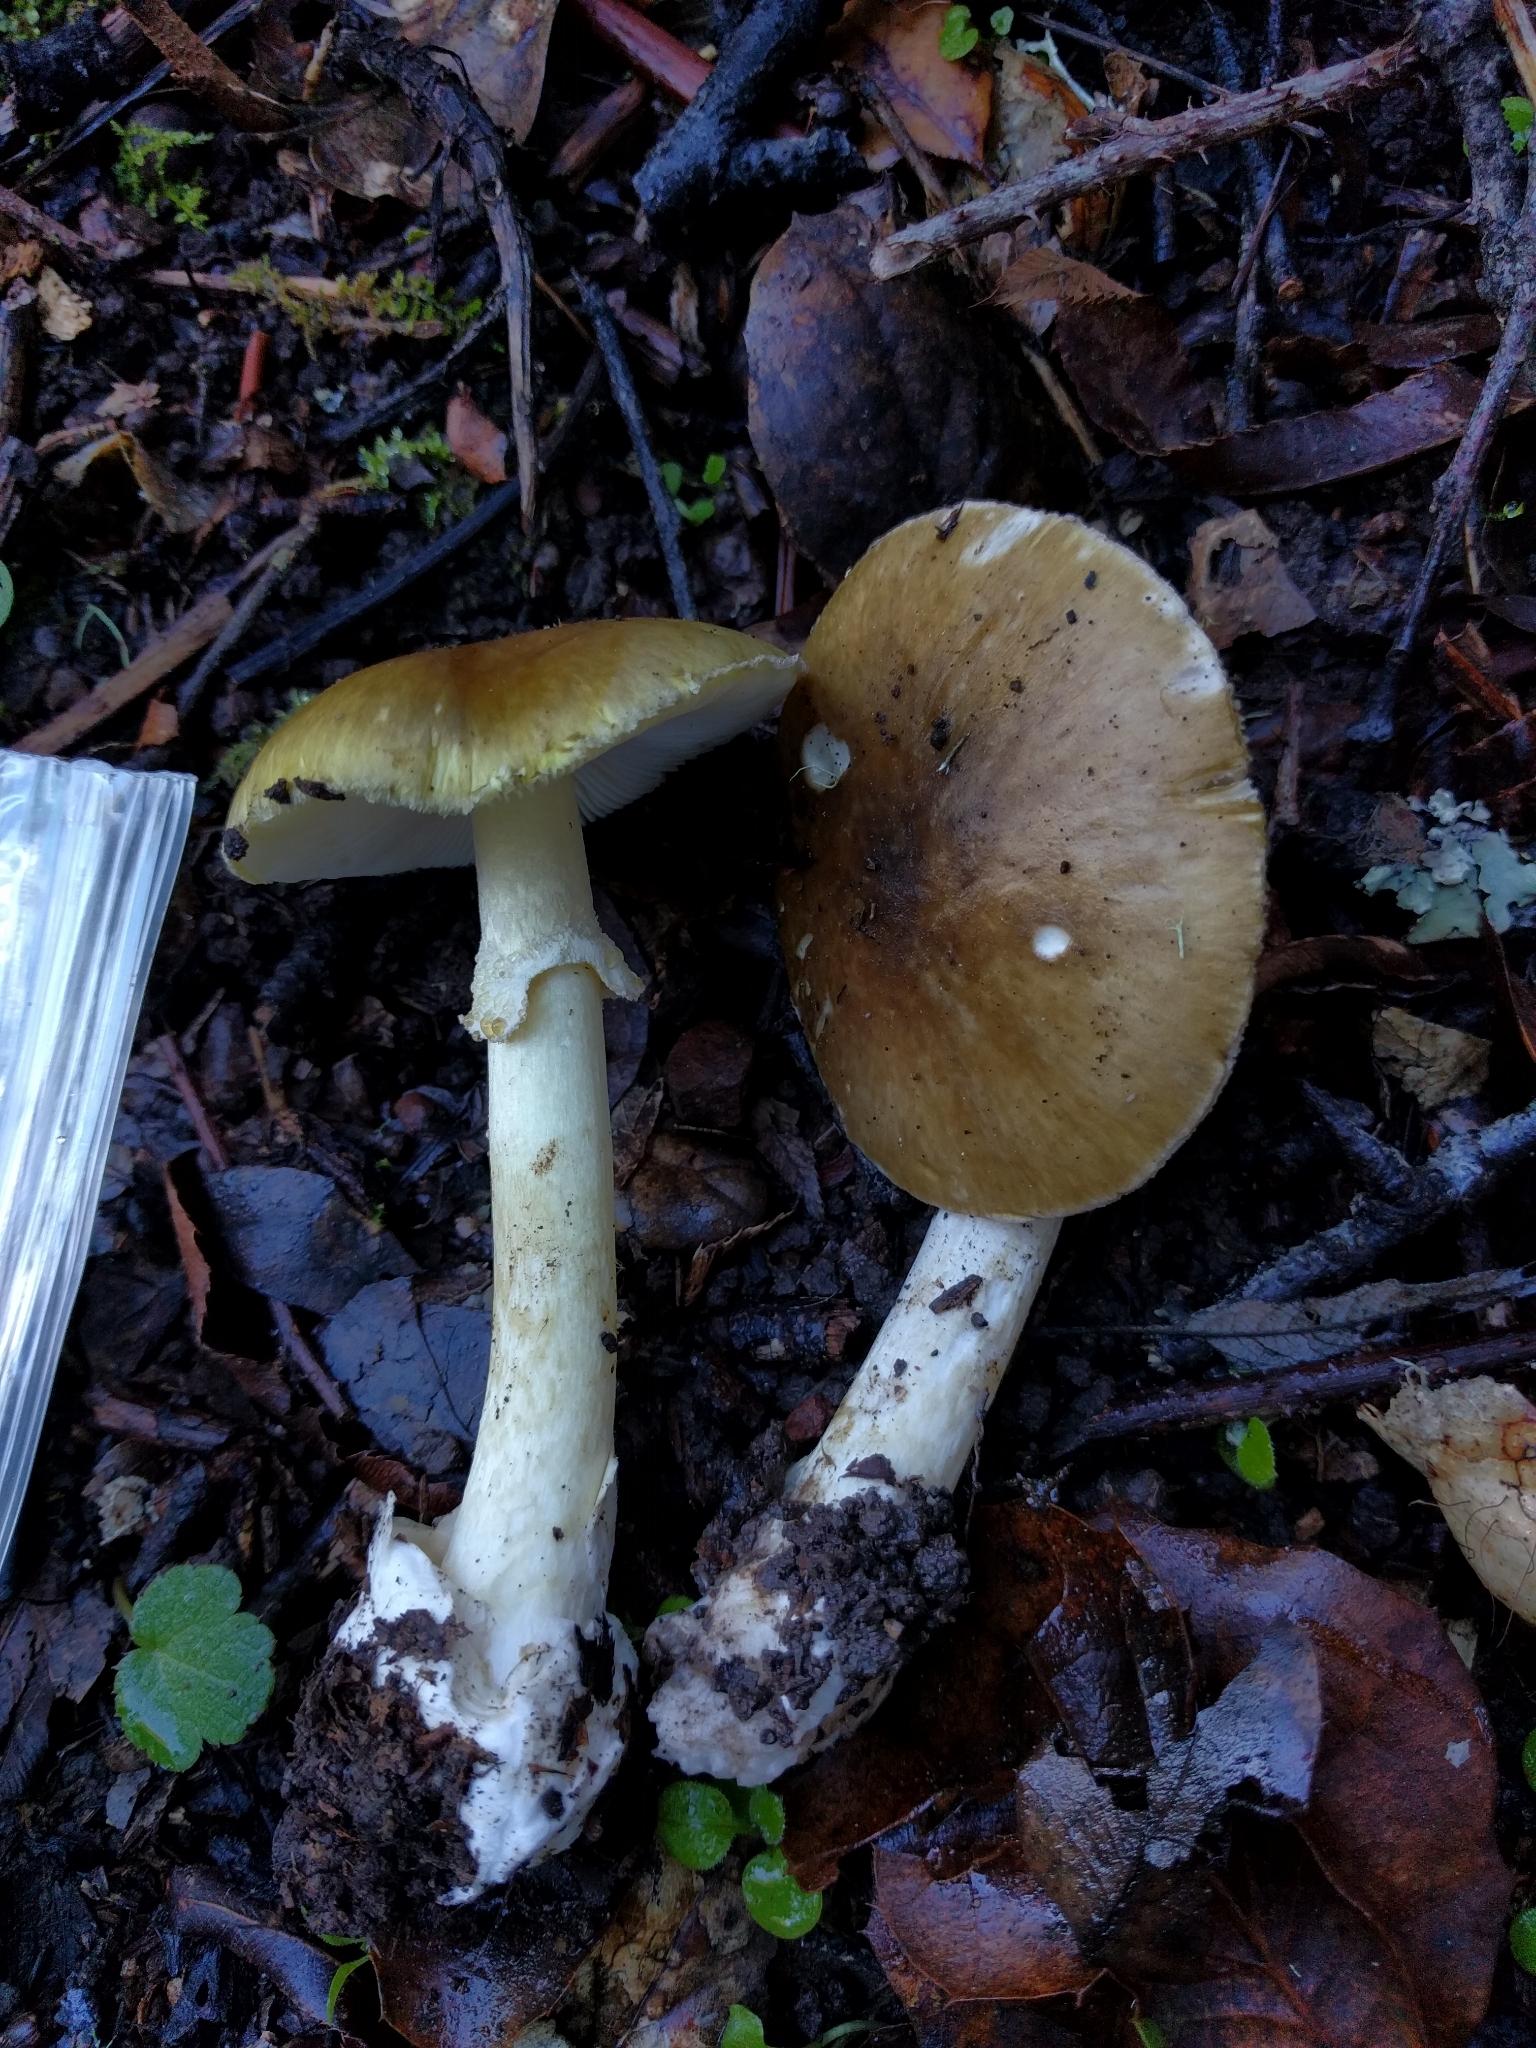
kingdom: Fungi
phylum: Basidiomycota
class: Agaricomycetes
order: Agaricales
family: Amanitaceae
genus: Amanita
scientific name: Amanita phalloides
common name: Death cap
